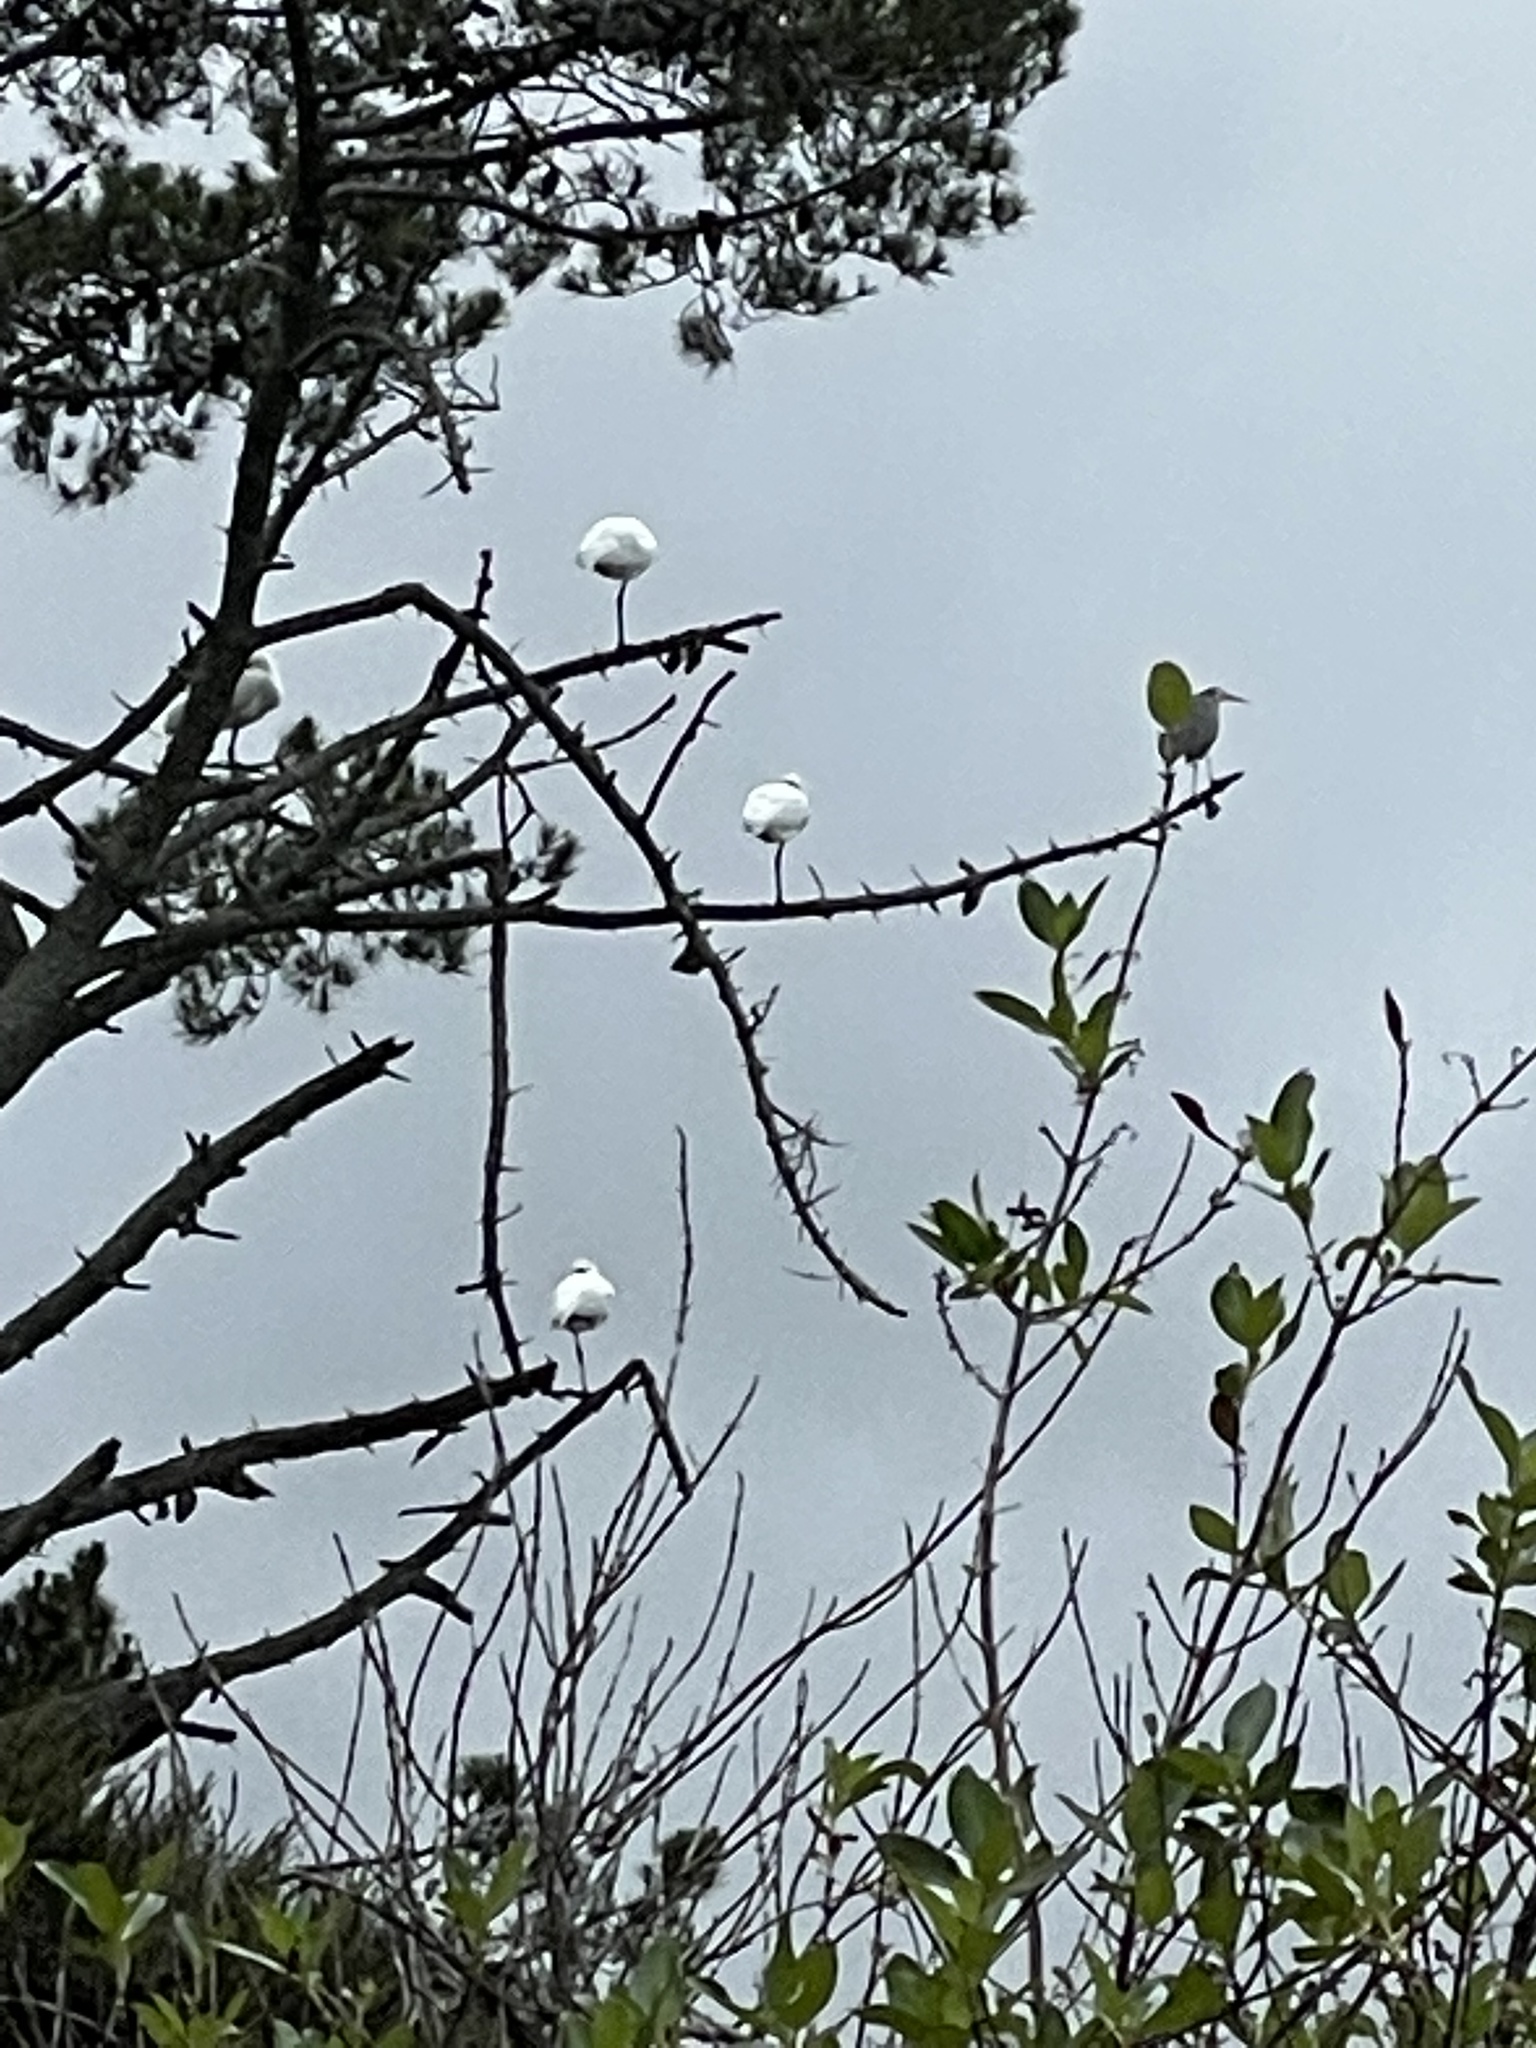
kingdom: Animalia
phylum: Chordata
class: Aves
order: Pelecaniformes
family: Threskiornithidae
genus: Platalea
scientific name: Platalea regia
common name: Royal spoonbill
